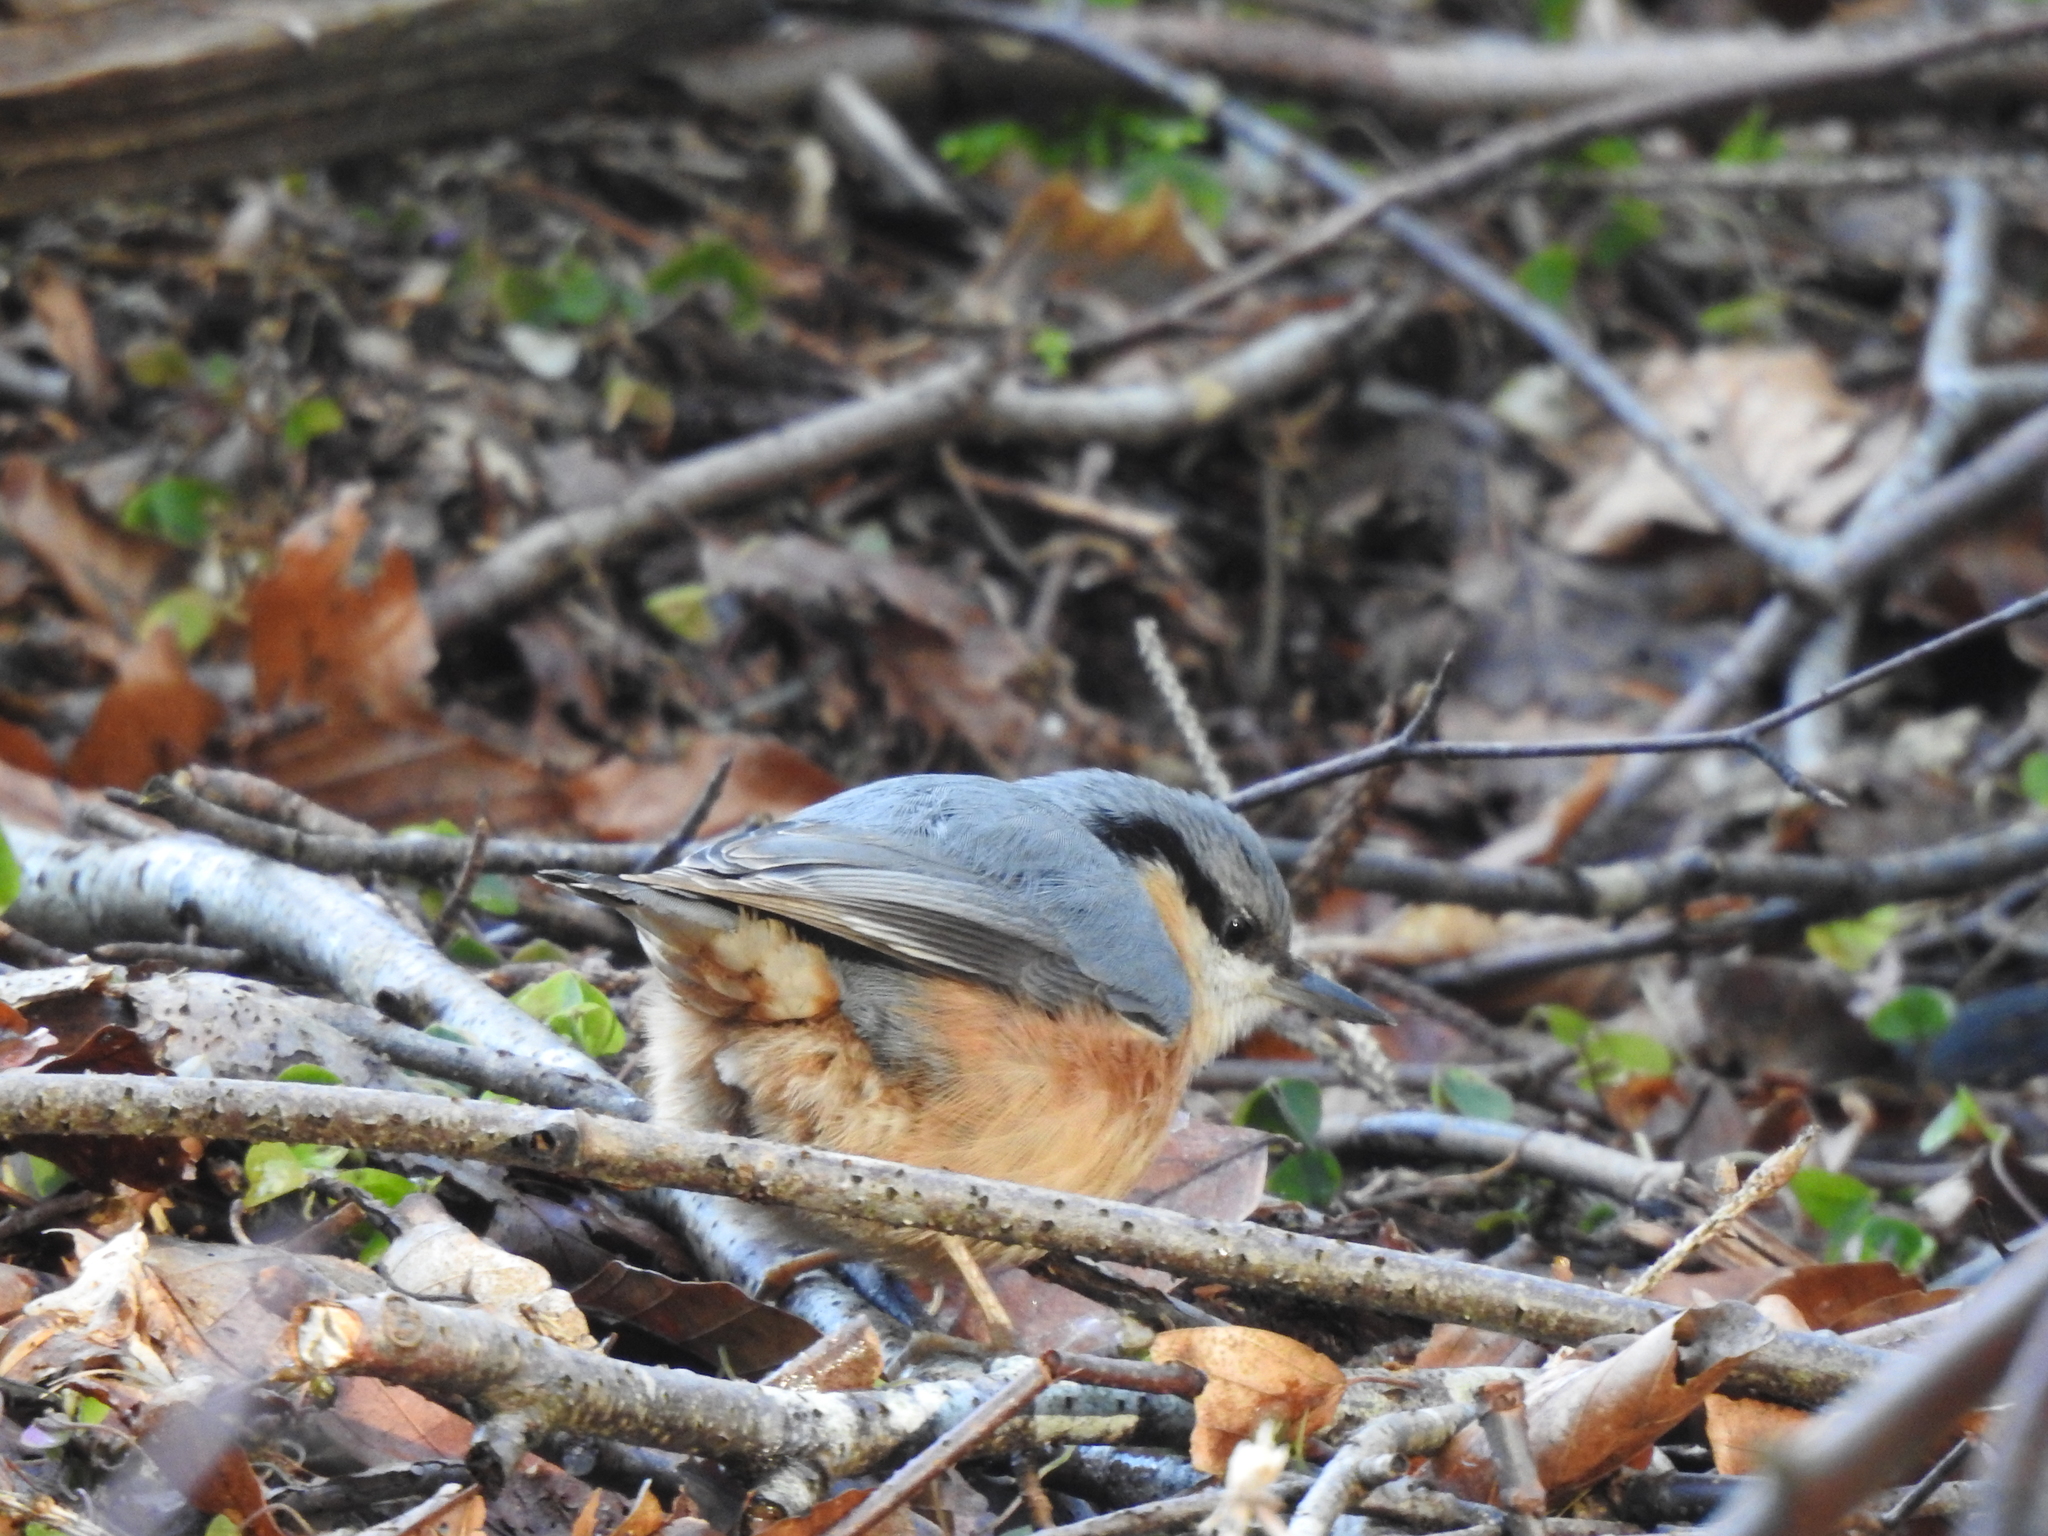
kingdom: Animalia
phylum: Chordata
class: Aves
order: Passeriformes
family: Sittidae
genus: Sitta
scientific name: Sitta europaea
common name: Eurasian nuthatch
